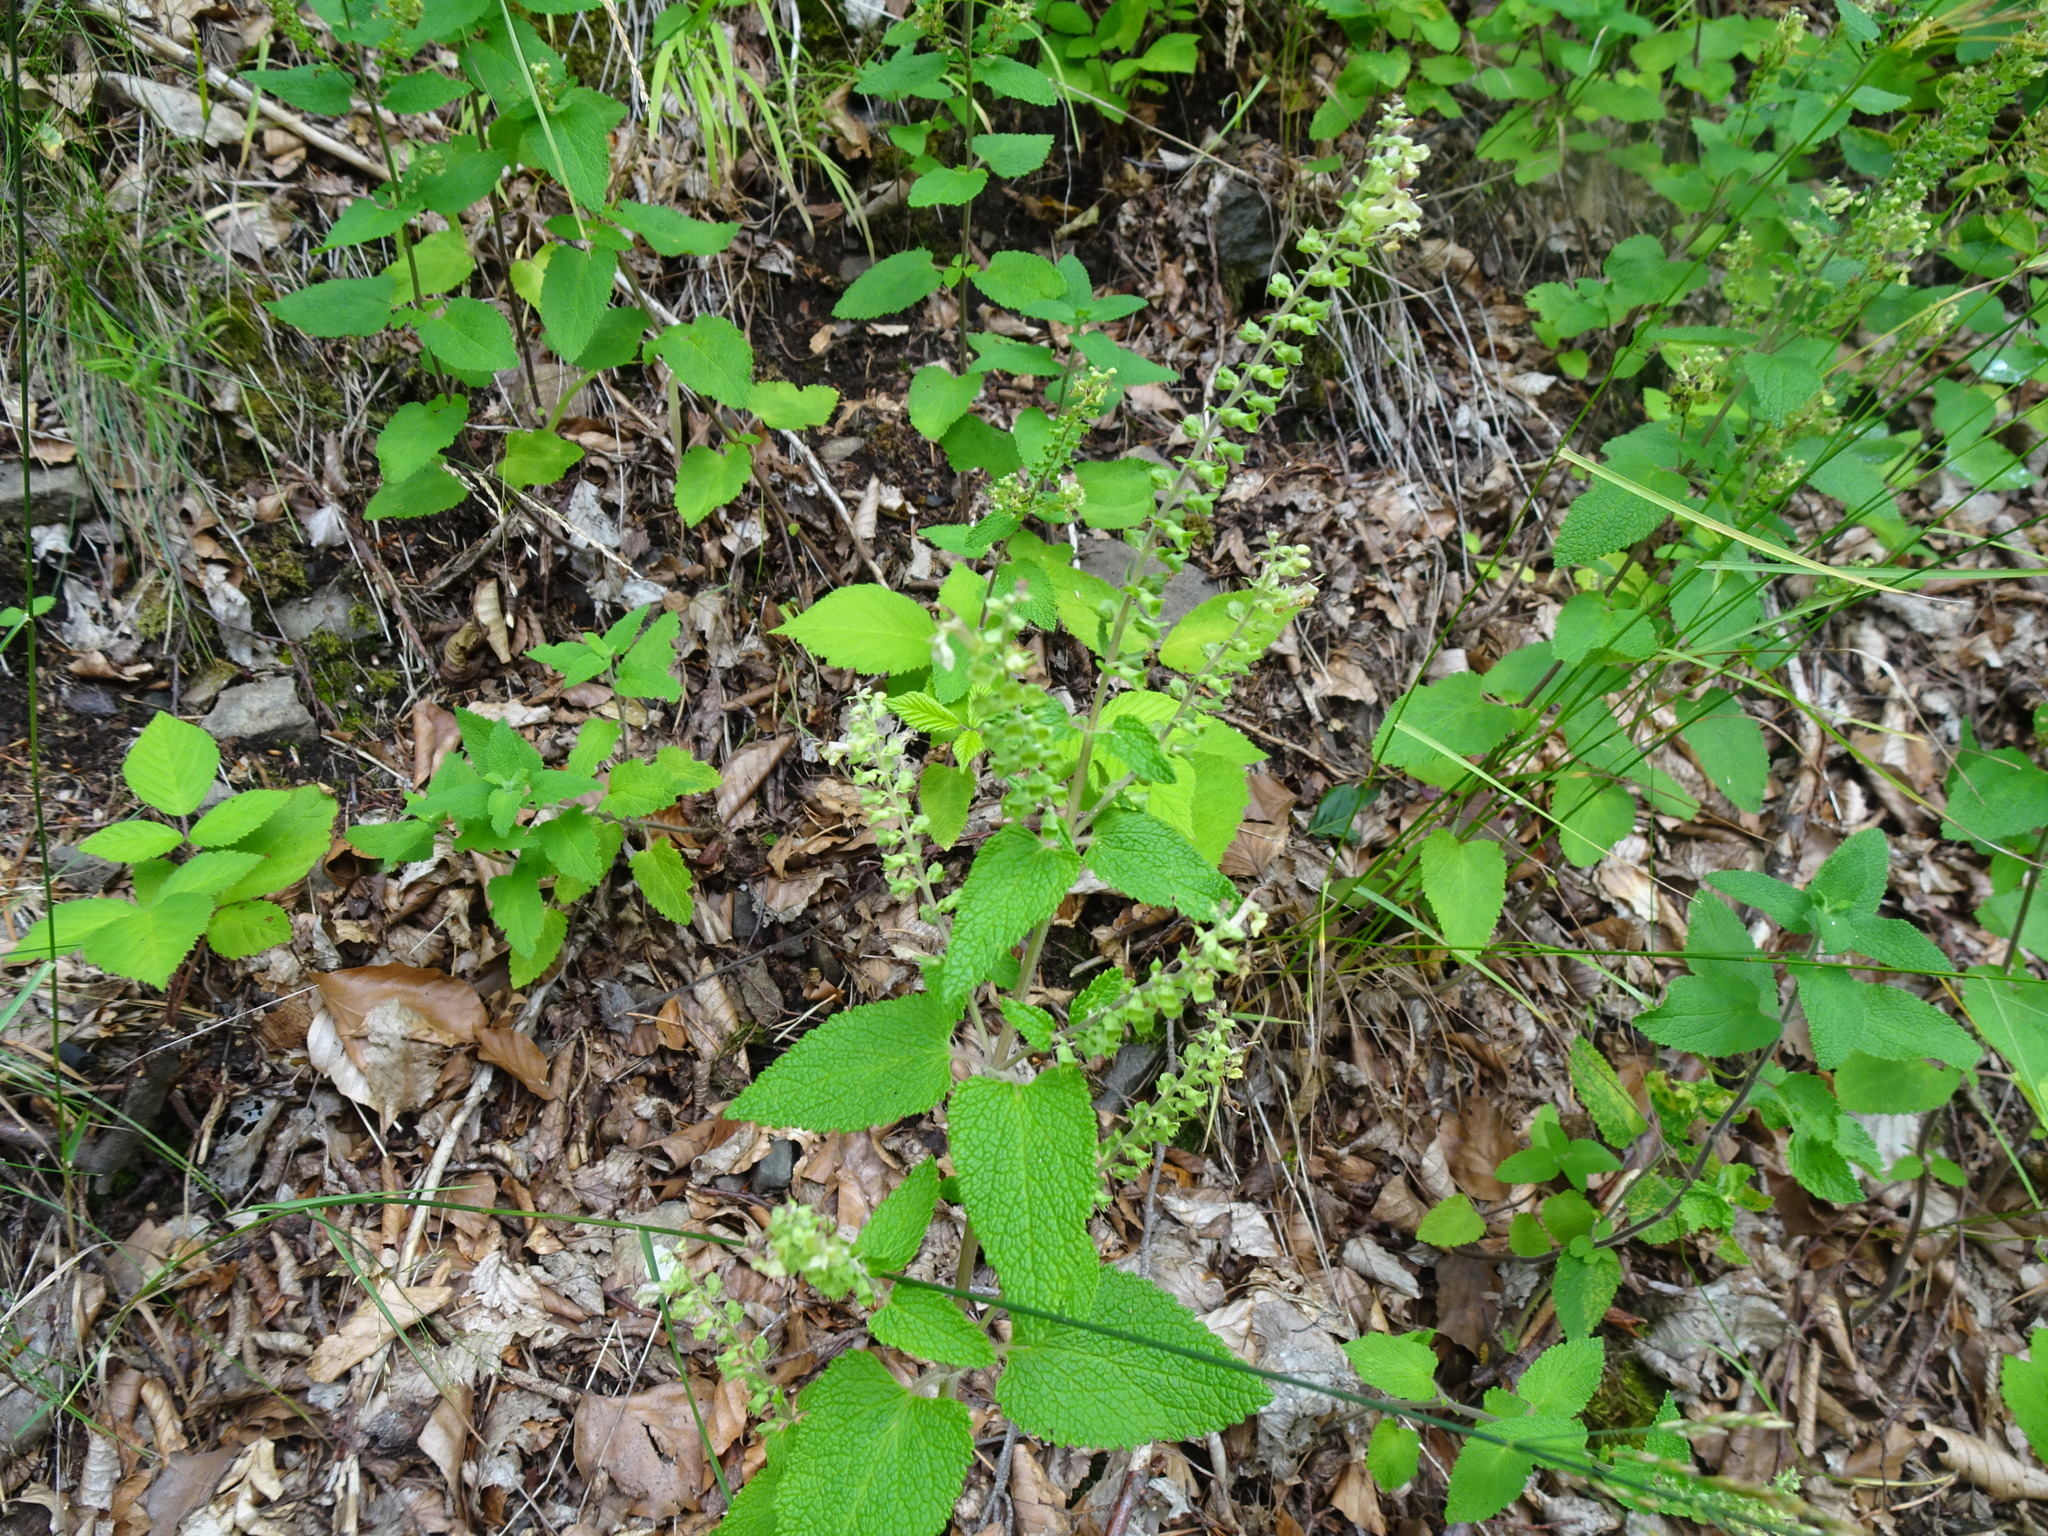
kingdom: Plantae
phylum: Tracheophyta
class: Magnoliopsida
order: Lamiales
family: Lamiaceae
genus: Teucrium
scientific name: Teucrium scorodonia
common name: Woodland germander
